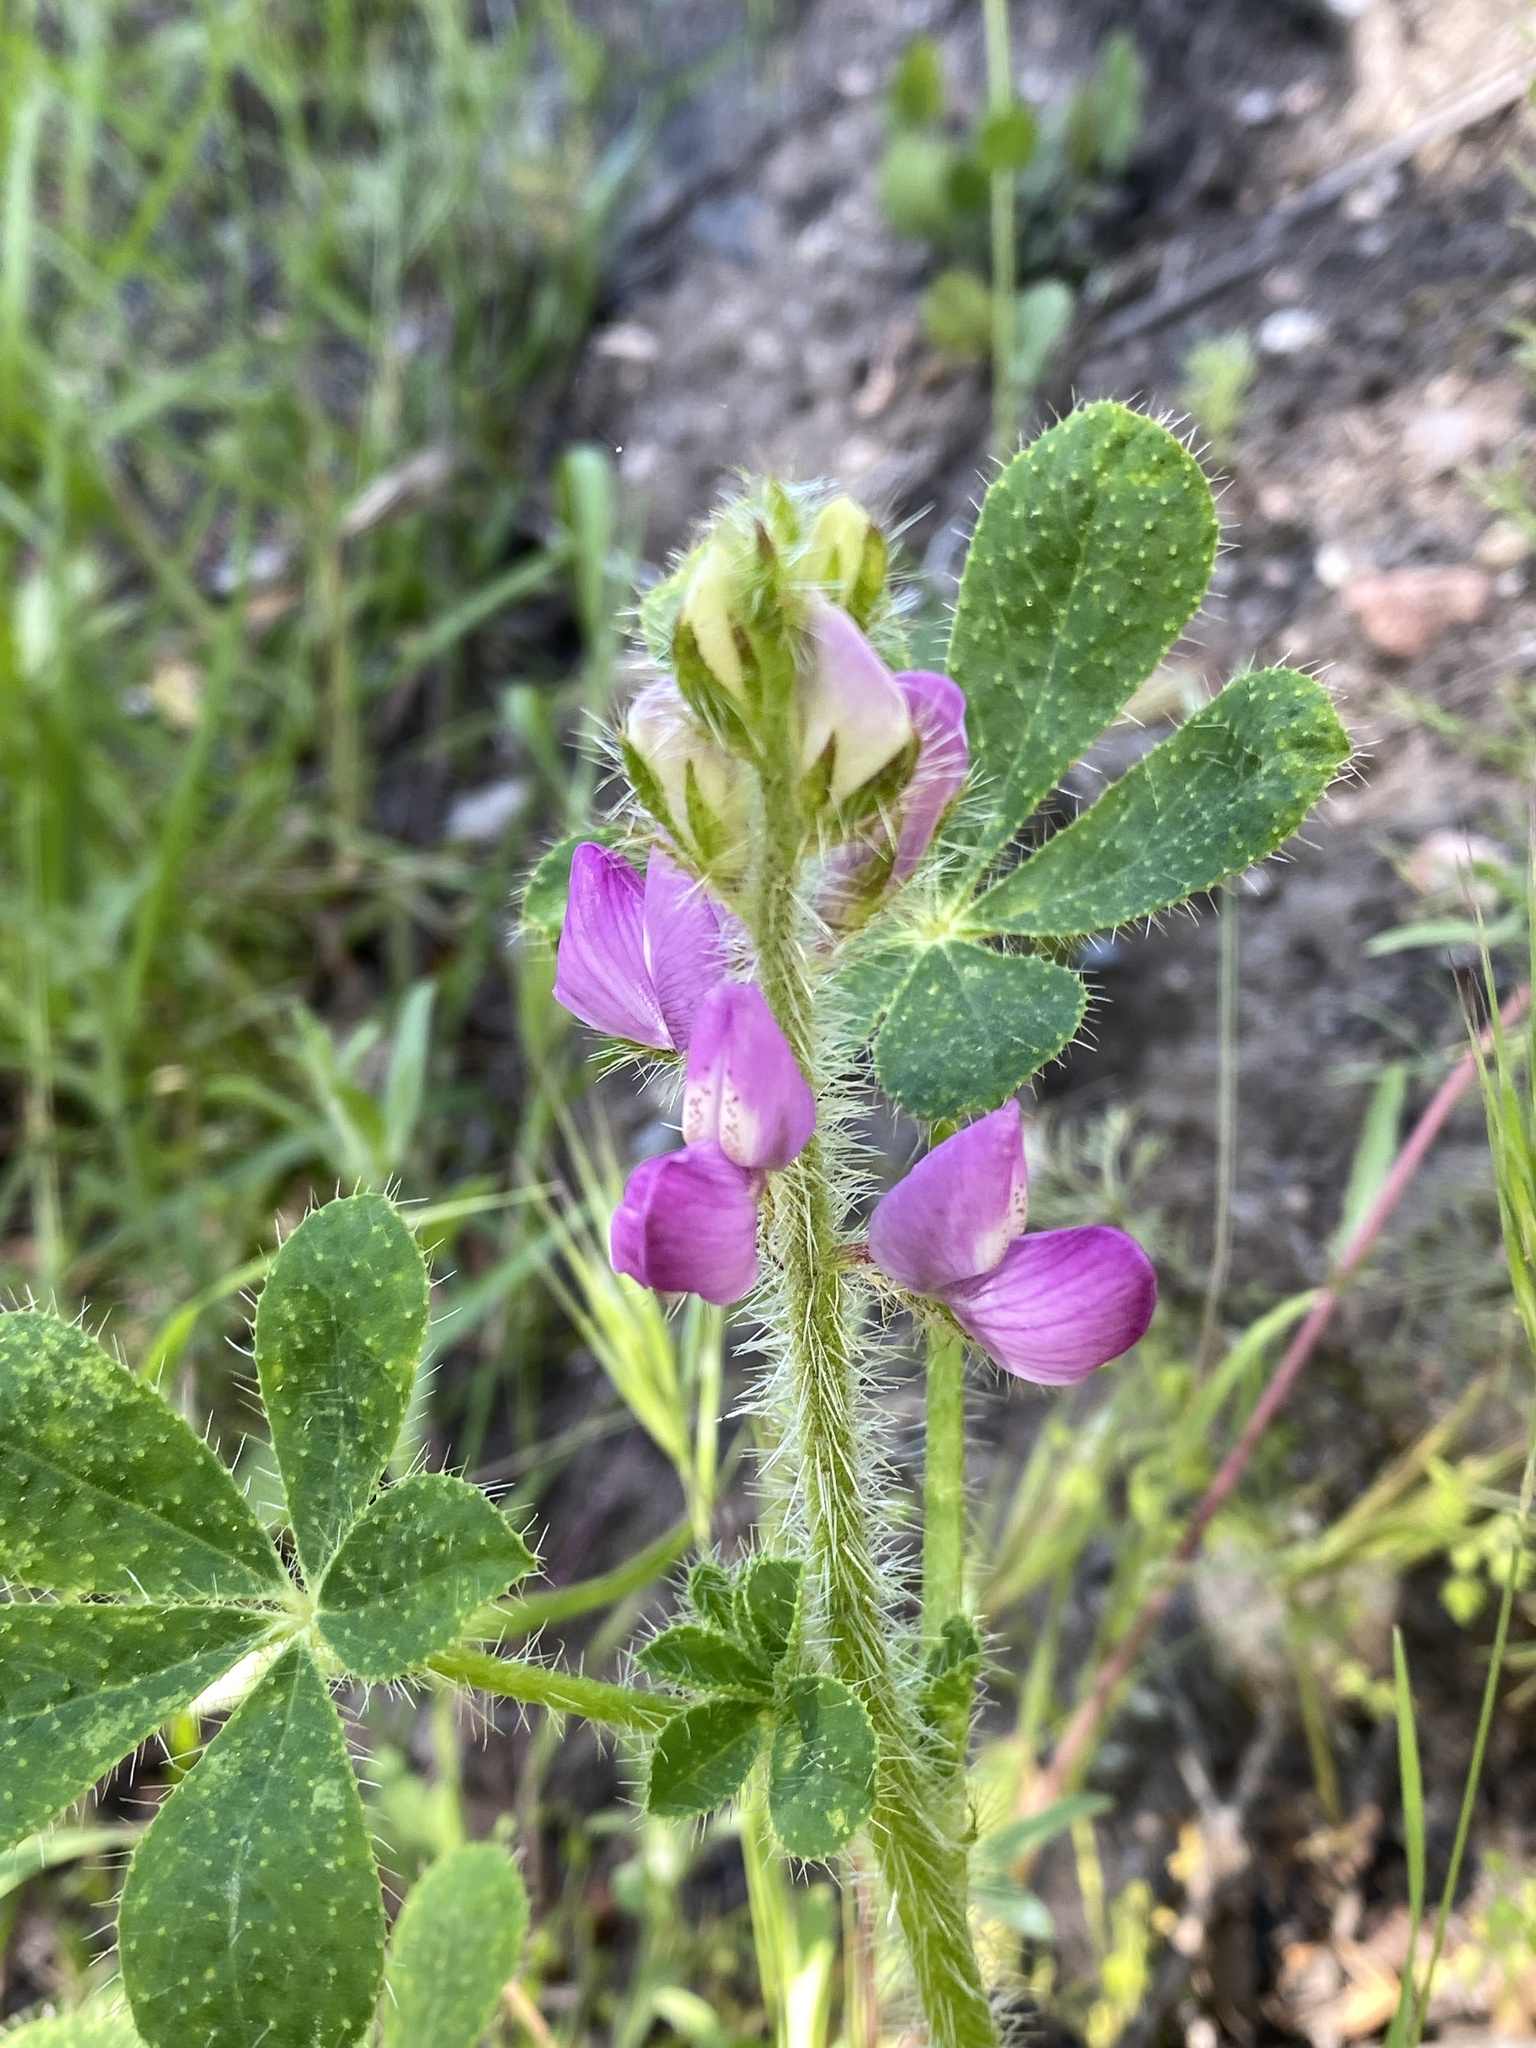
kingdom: Plantae
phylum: Tracheophyta
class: Magnoliopsida
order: Fabales
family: Fabaceae
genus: Lupinus
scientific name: Lupinus hirsutissimus
